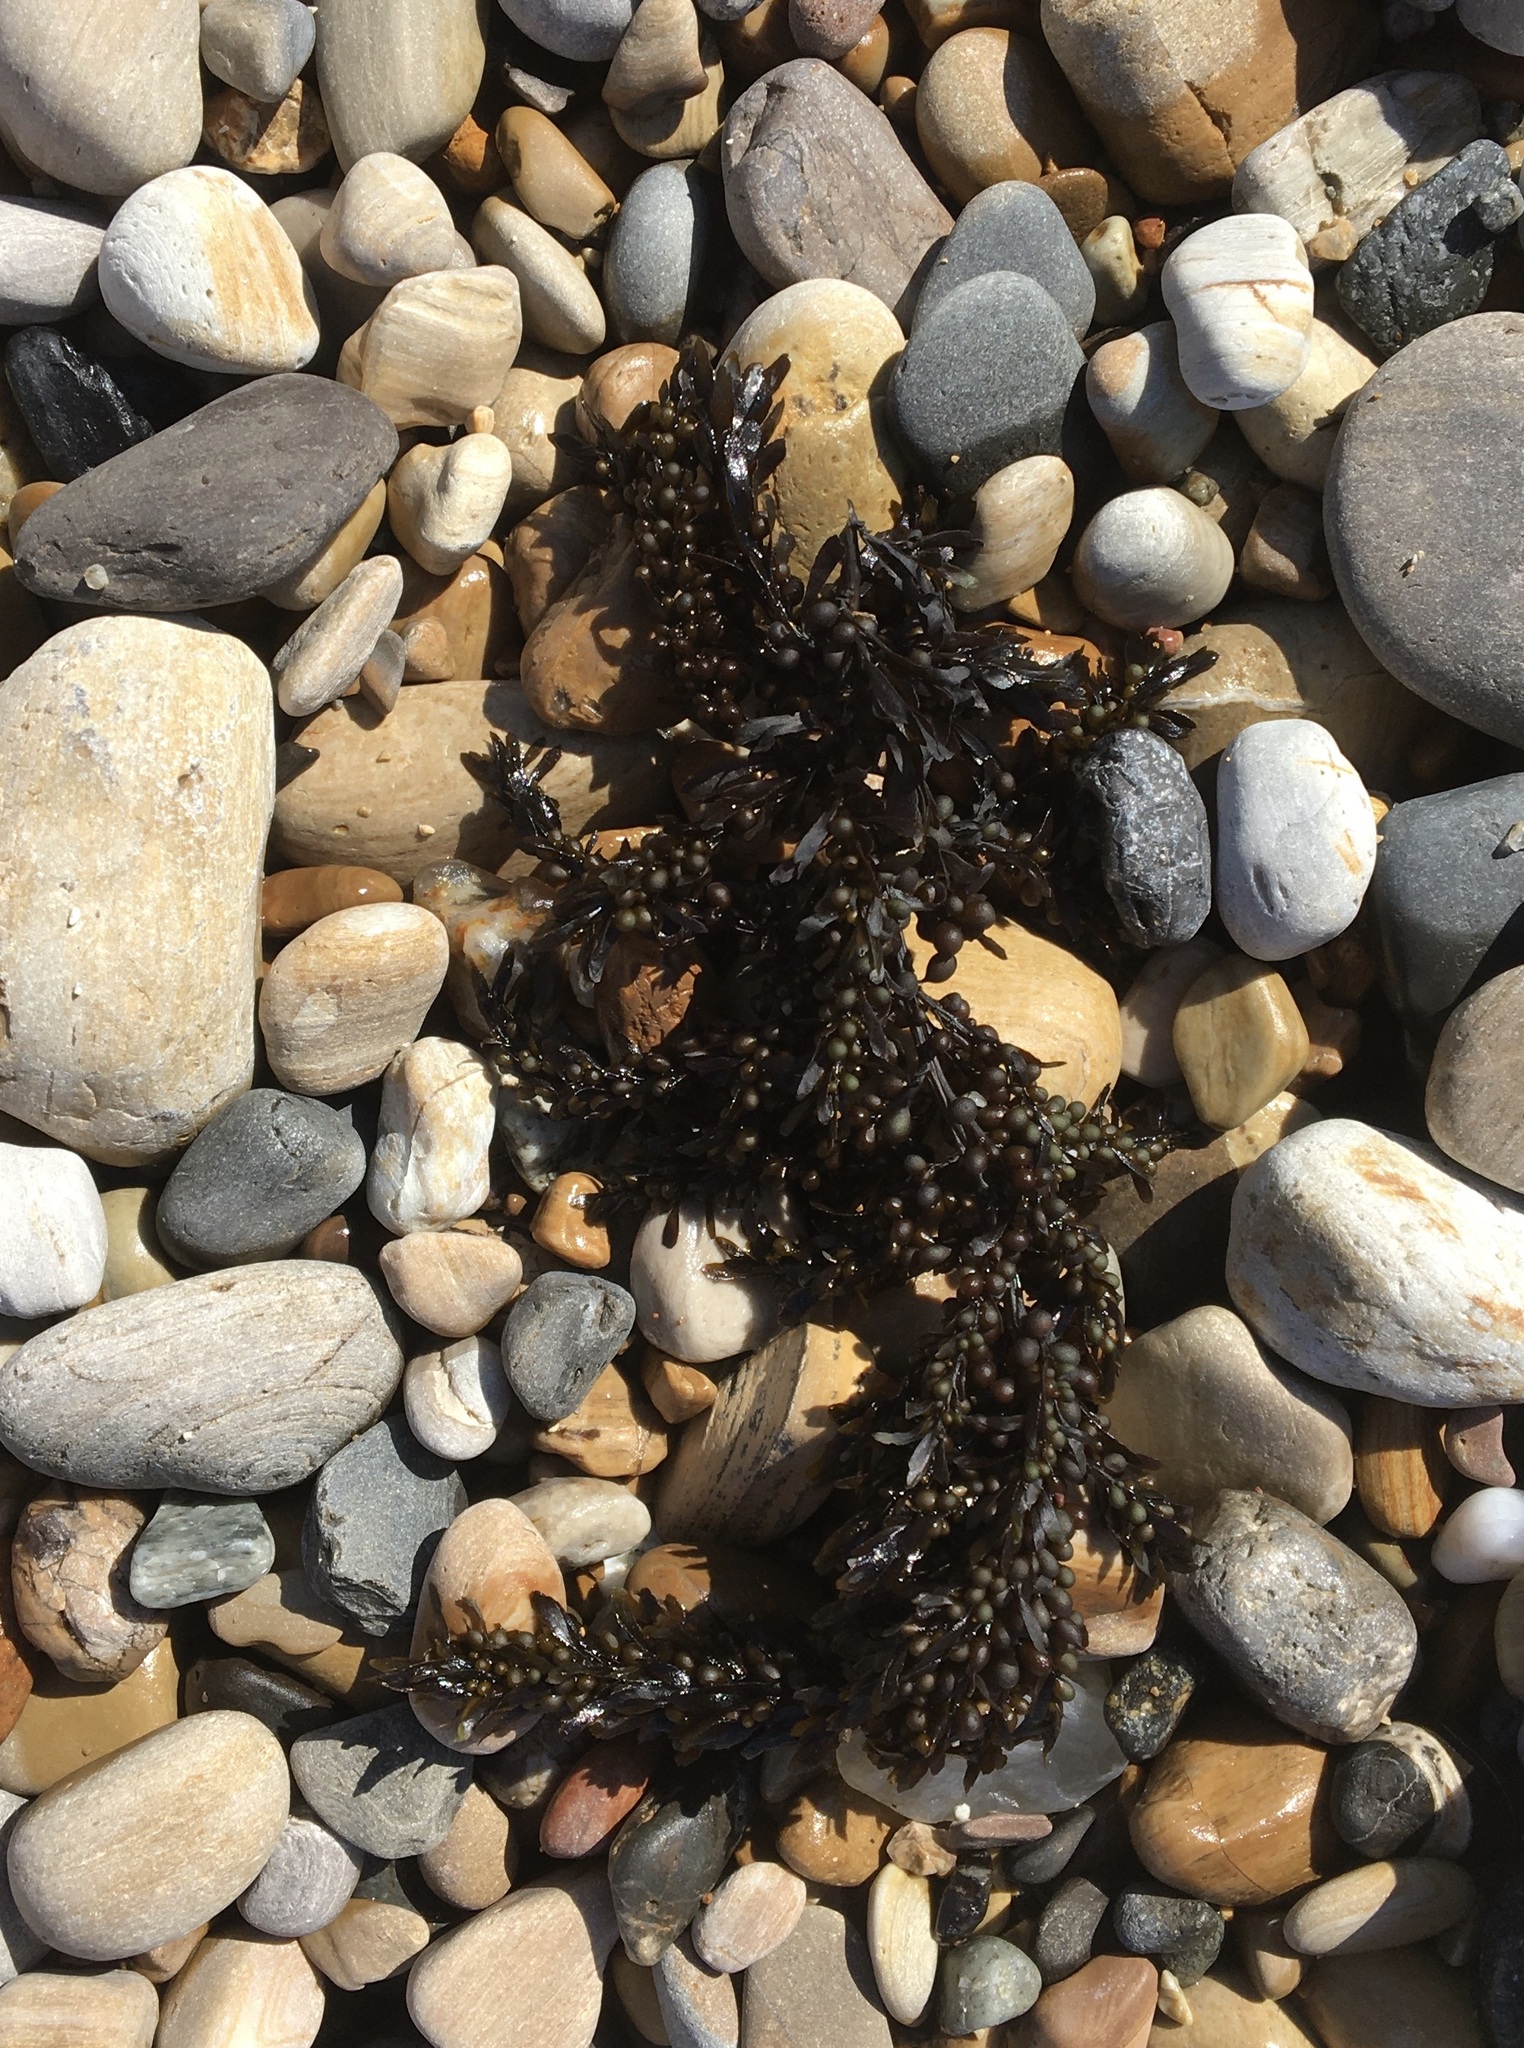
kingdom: Chromista
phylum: Ochrophyta
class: Phaeophyceae
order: Fucales
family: Sargassaceae
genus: Sargassum
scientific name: Sargassum muticum
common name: Japweed
